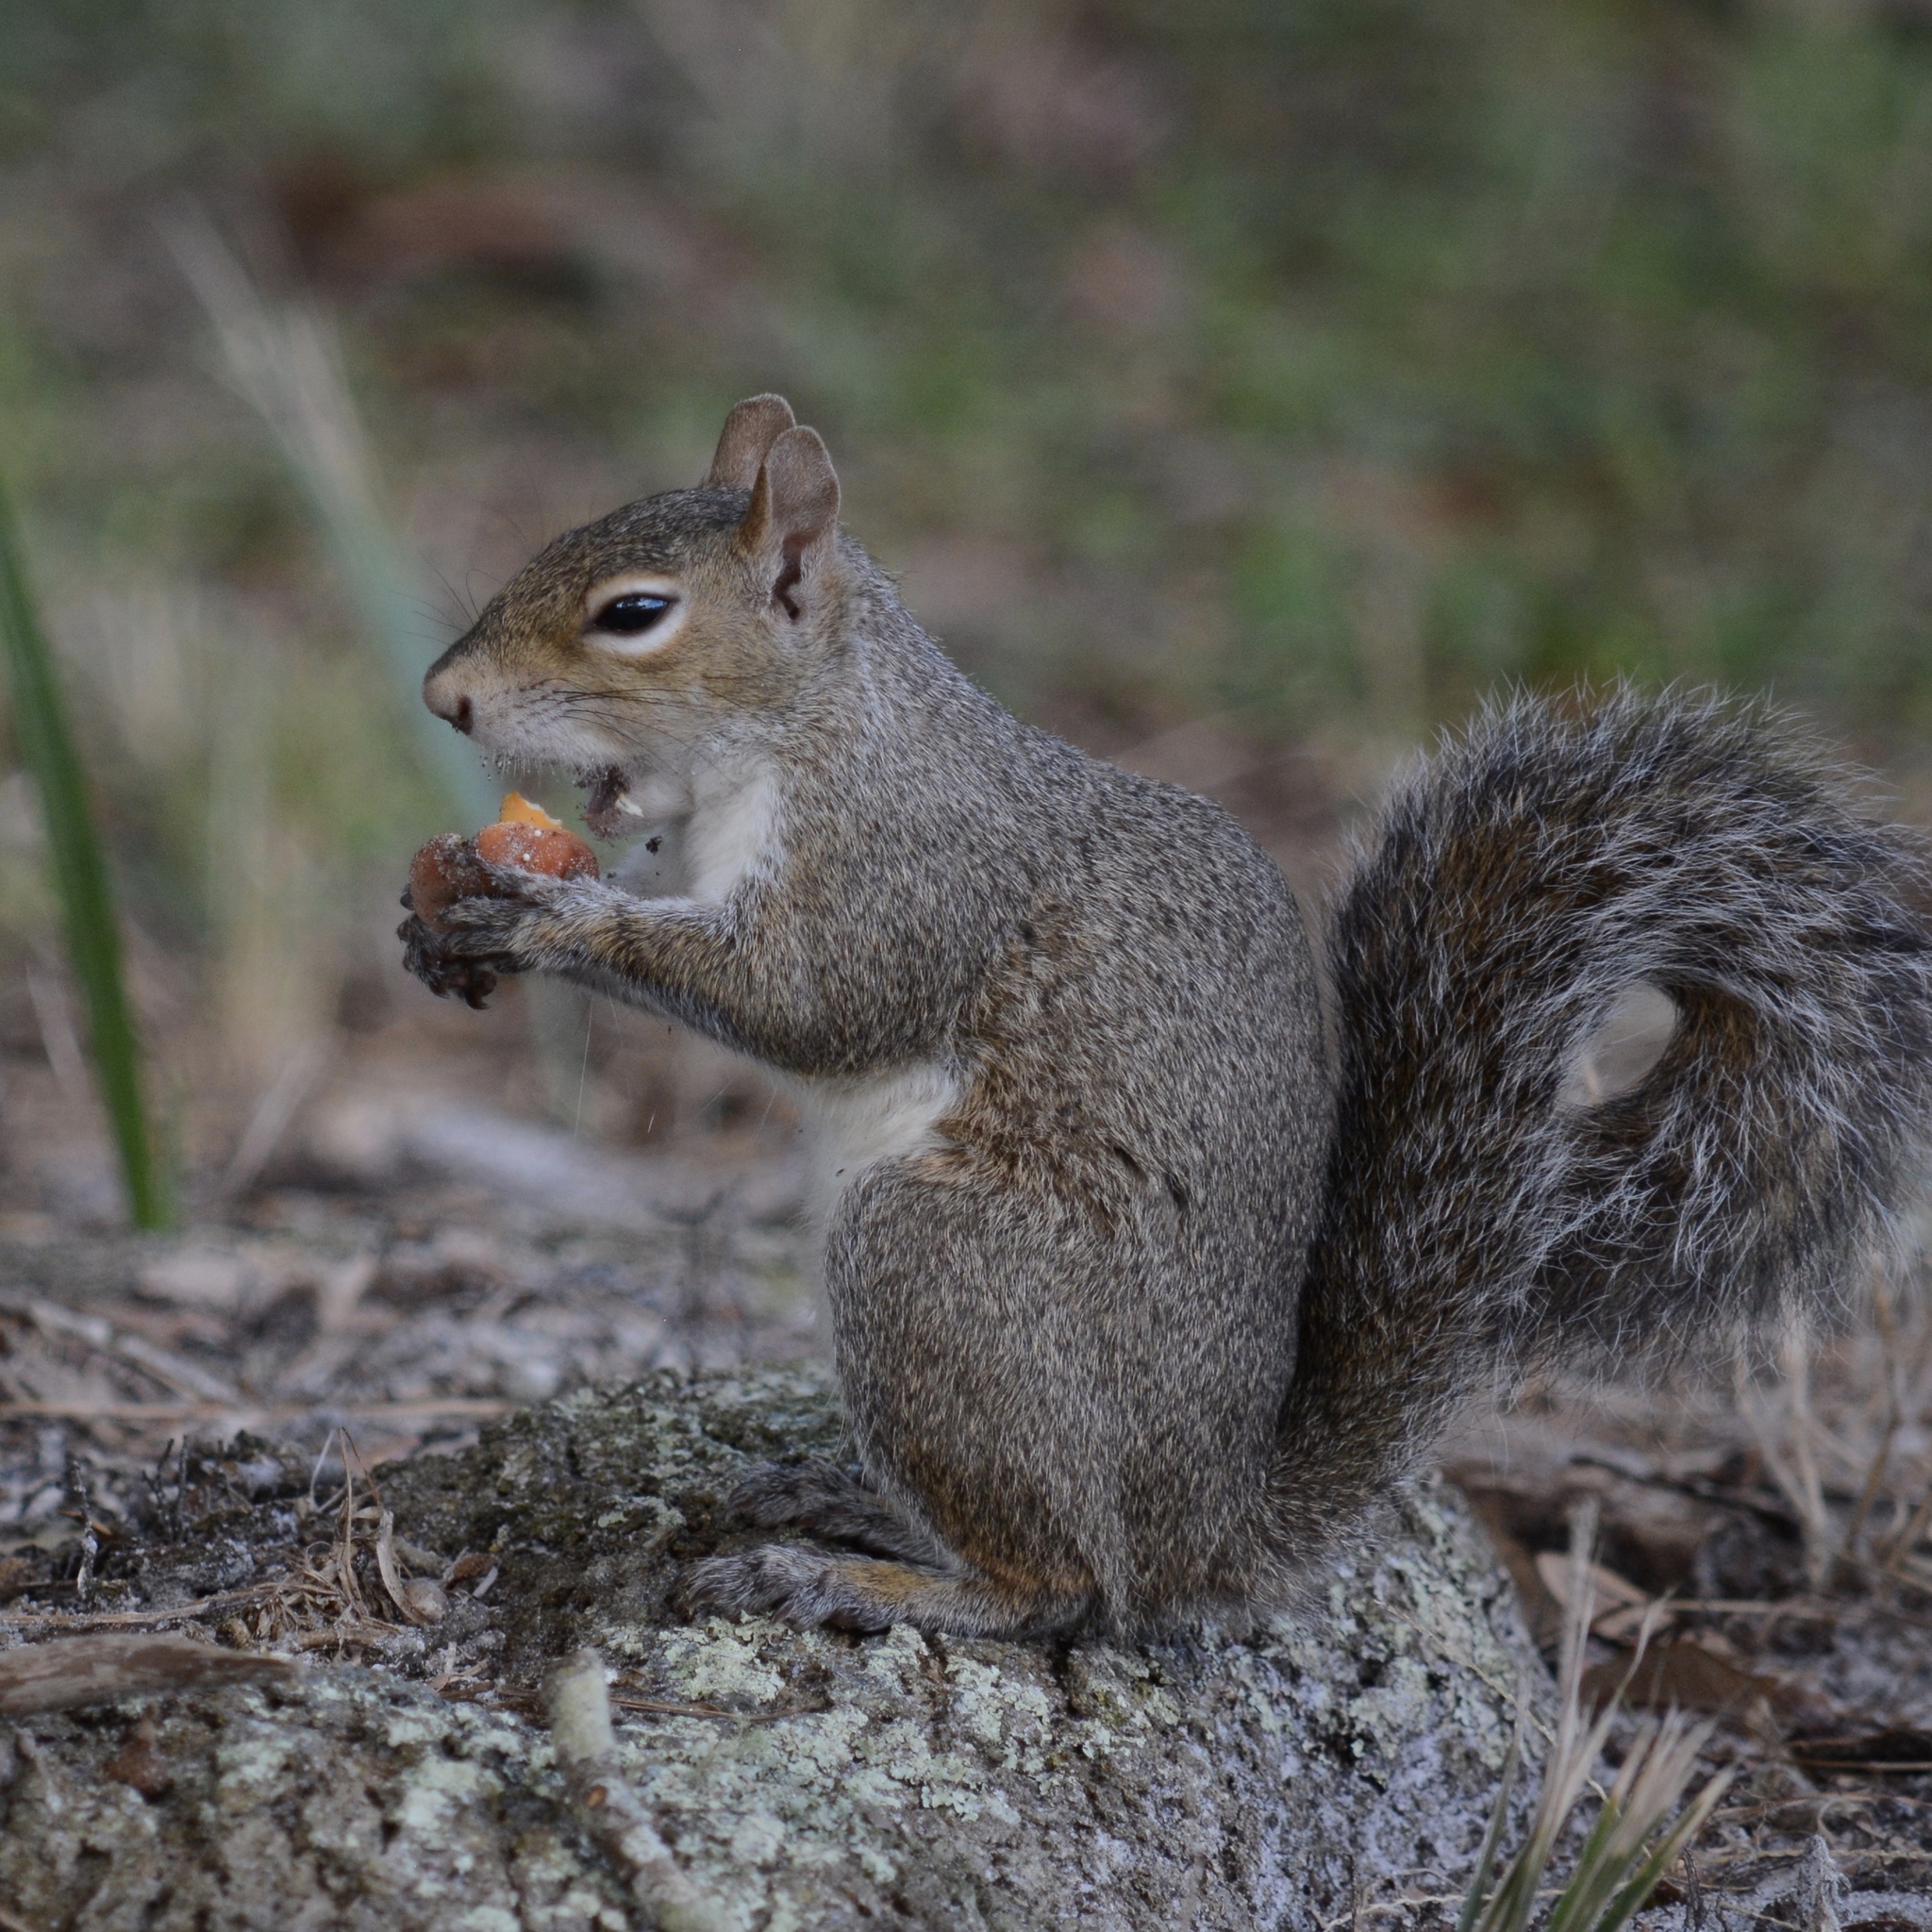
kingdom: Animalia
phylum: Chordata
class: Mammalia
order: Rodentia
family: Sciuridae
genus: Sciurus
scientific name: Sciurus carolinensis
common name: Eastern gray squirrel
